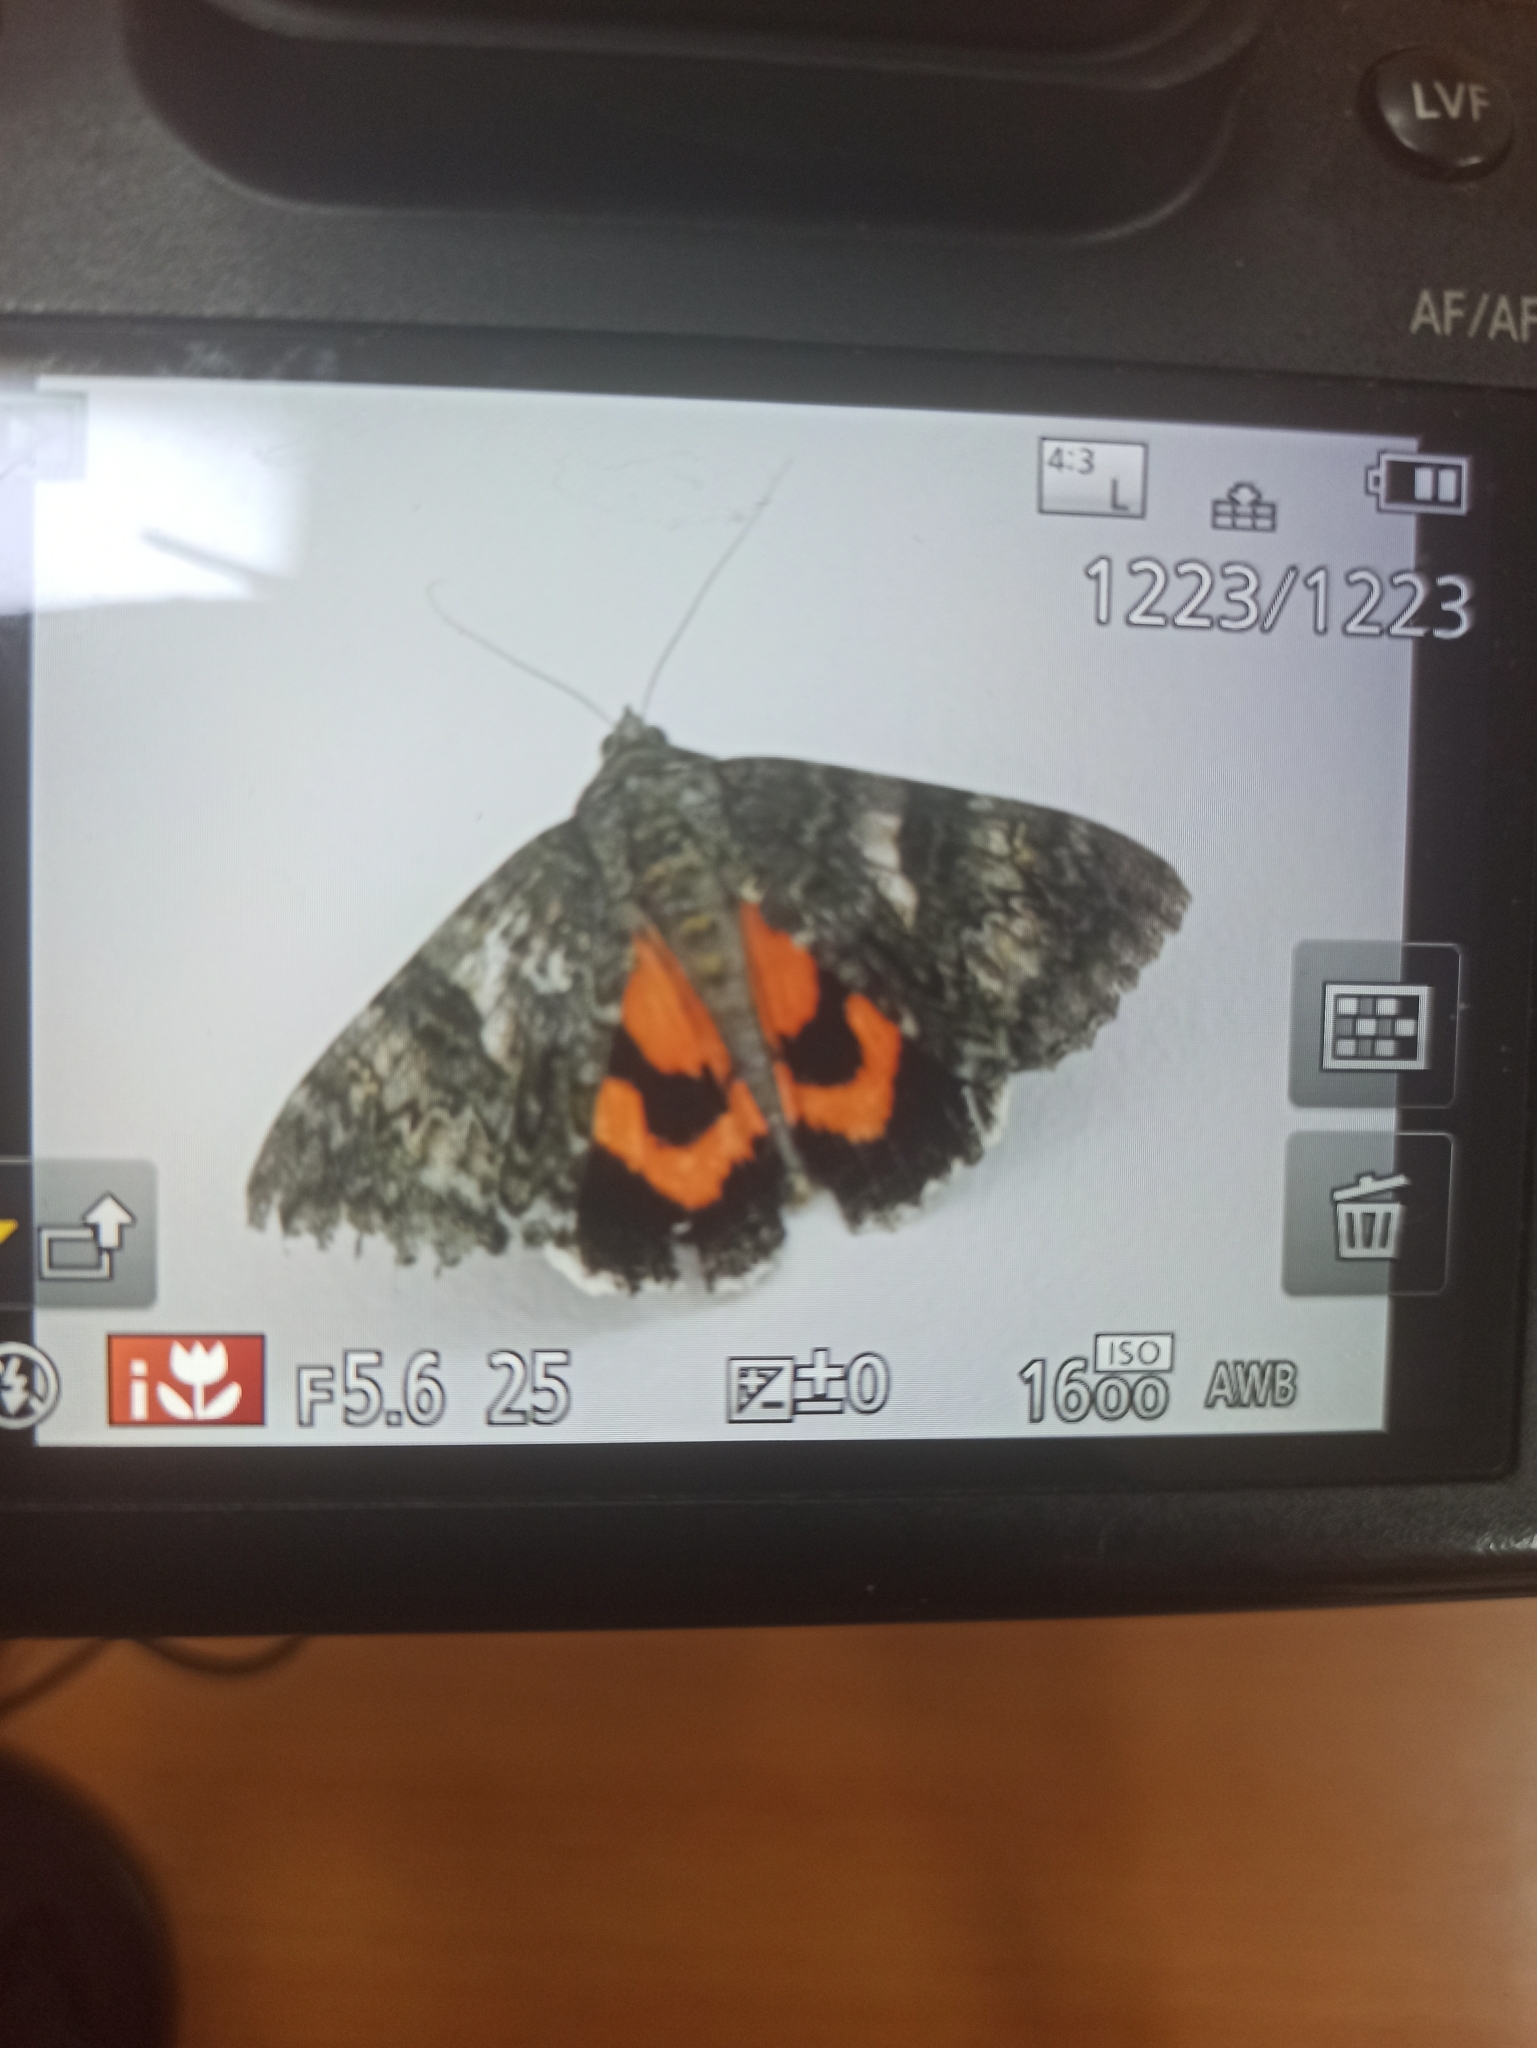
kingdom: Animalia
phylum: Arthropoda
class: Insecta
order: Lepidoptera
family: Erebidae
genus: Catocala
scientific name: Catocala nupta
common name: Red underwing
